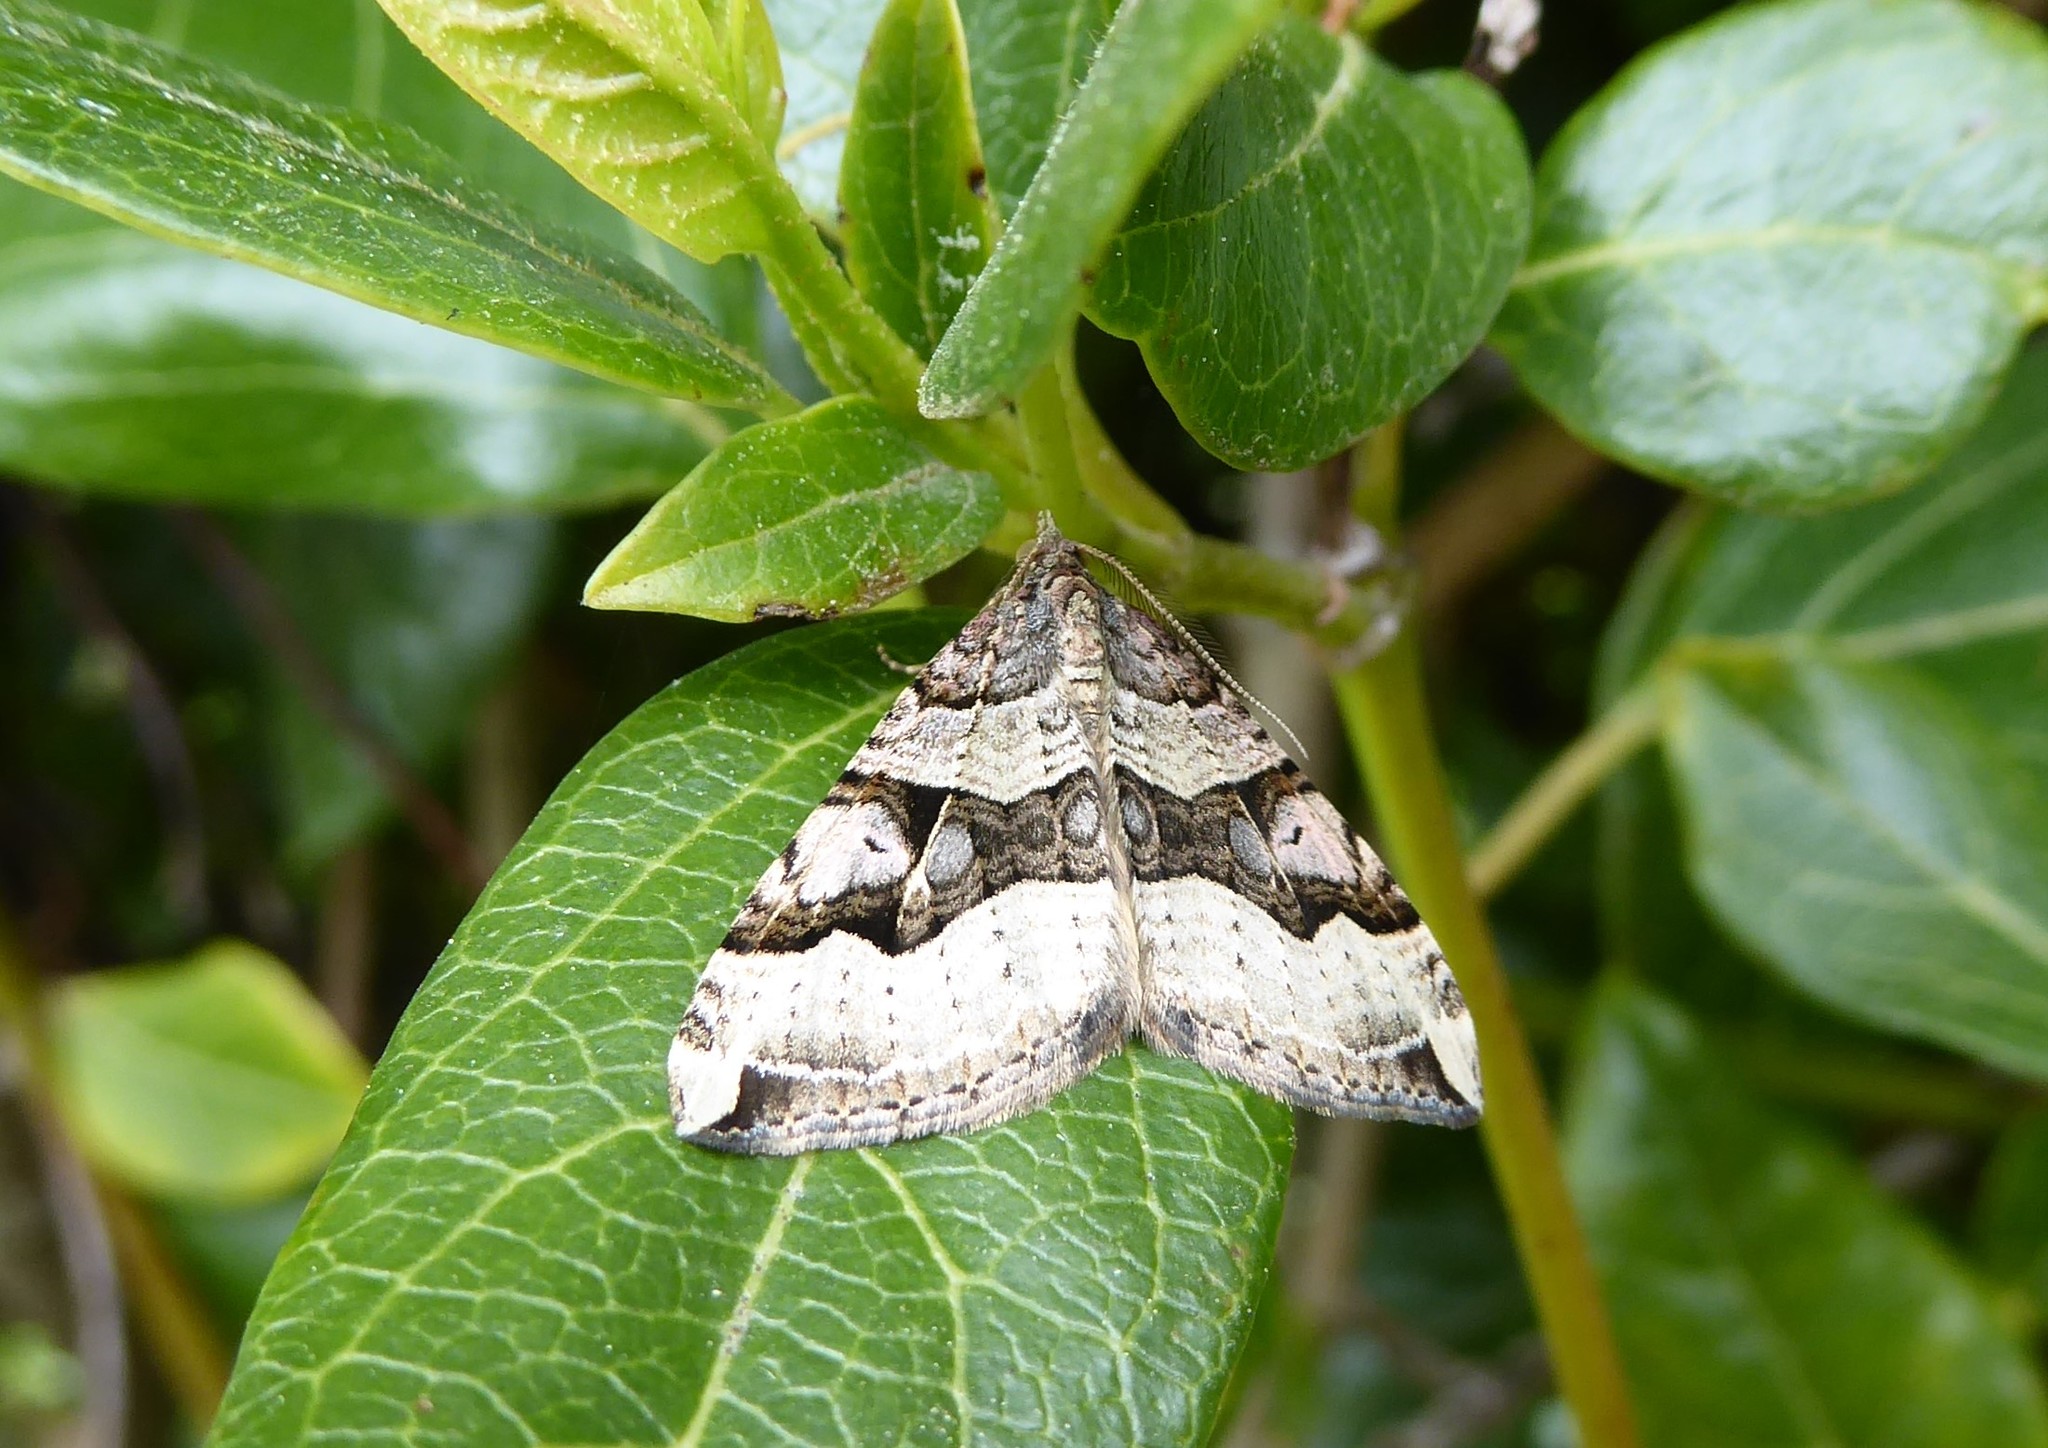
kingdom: Animalia
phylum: Arthropoda
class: Insecta
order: Lepidoptera
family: Geometridae
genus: Xanthorhoe
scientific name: Xanthorhoe semifissata
